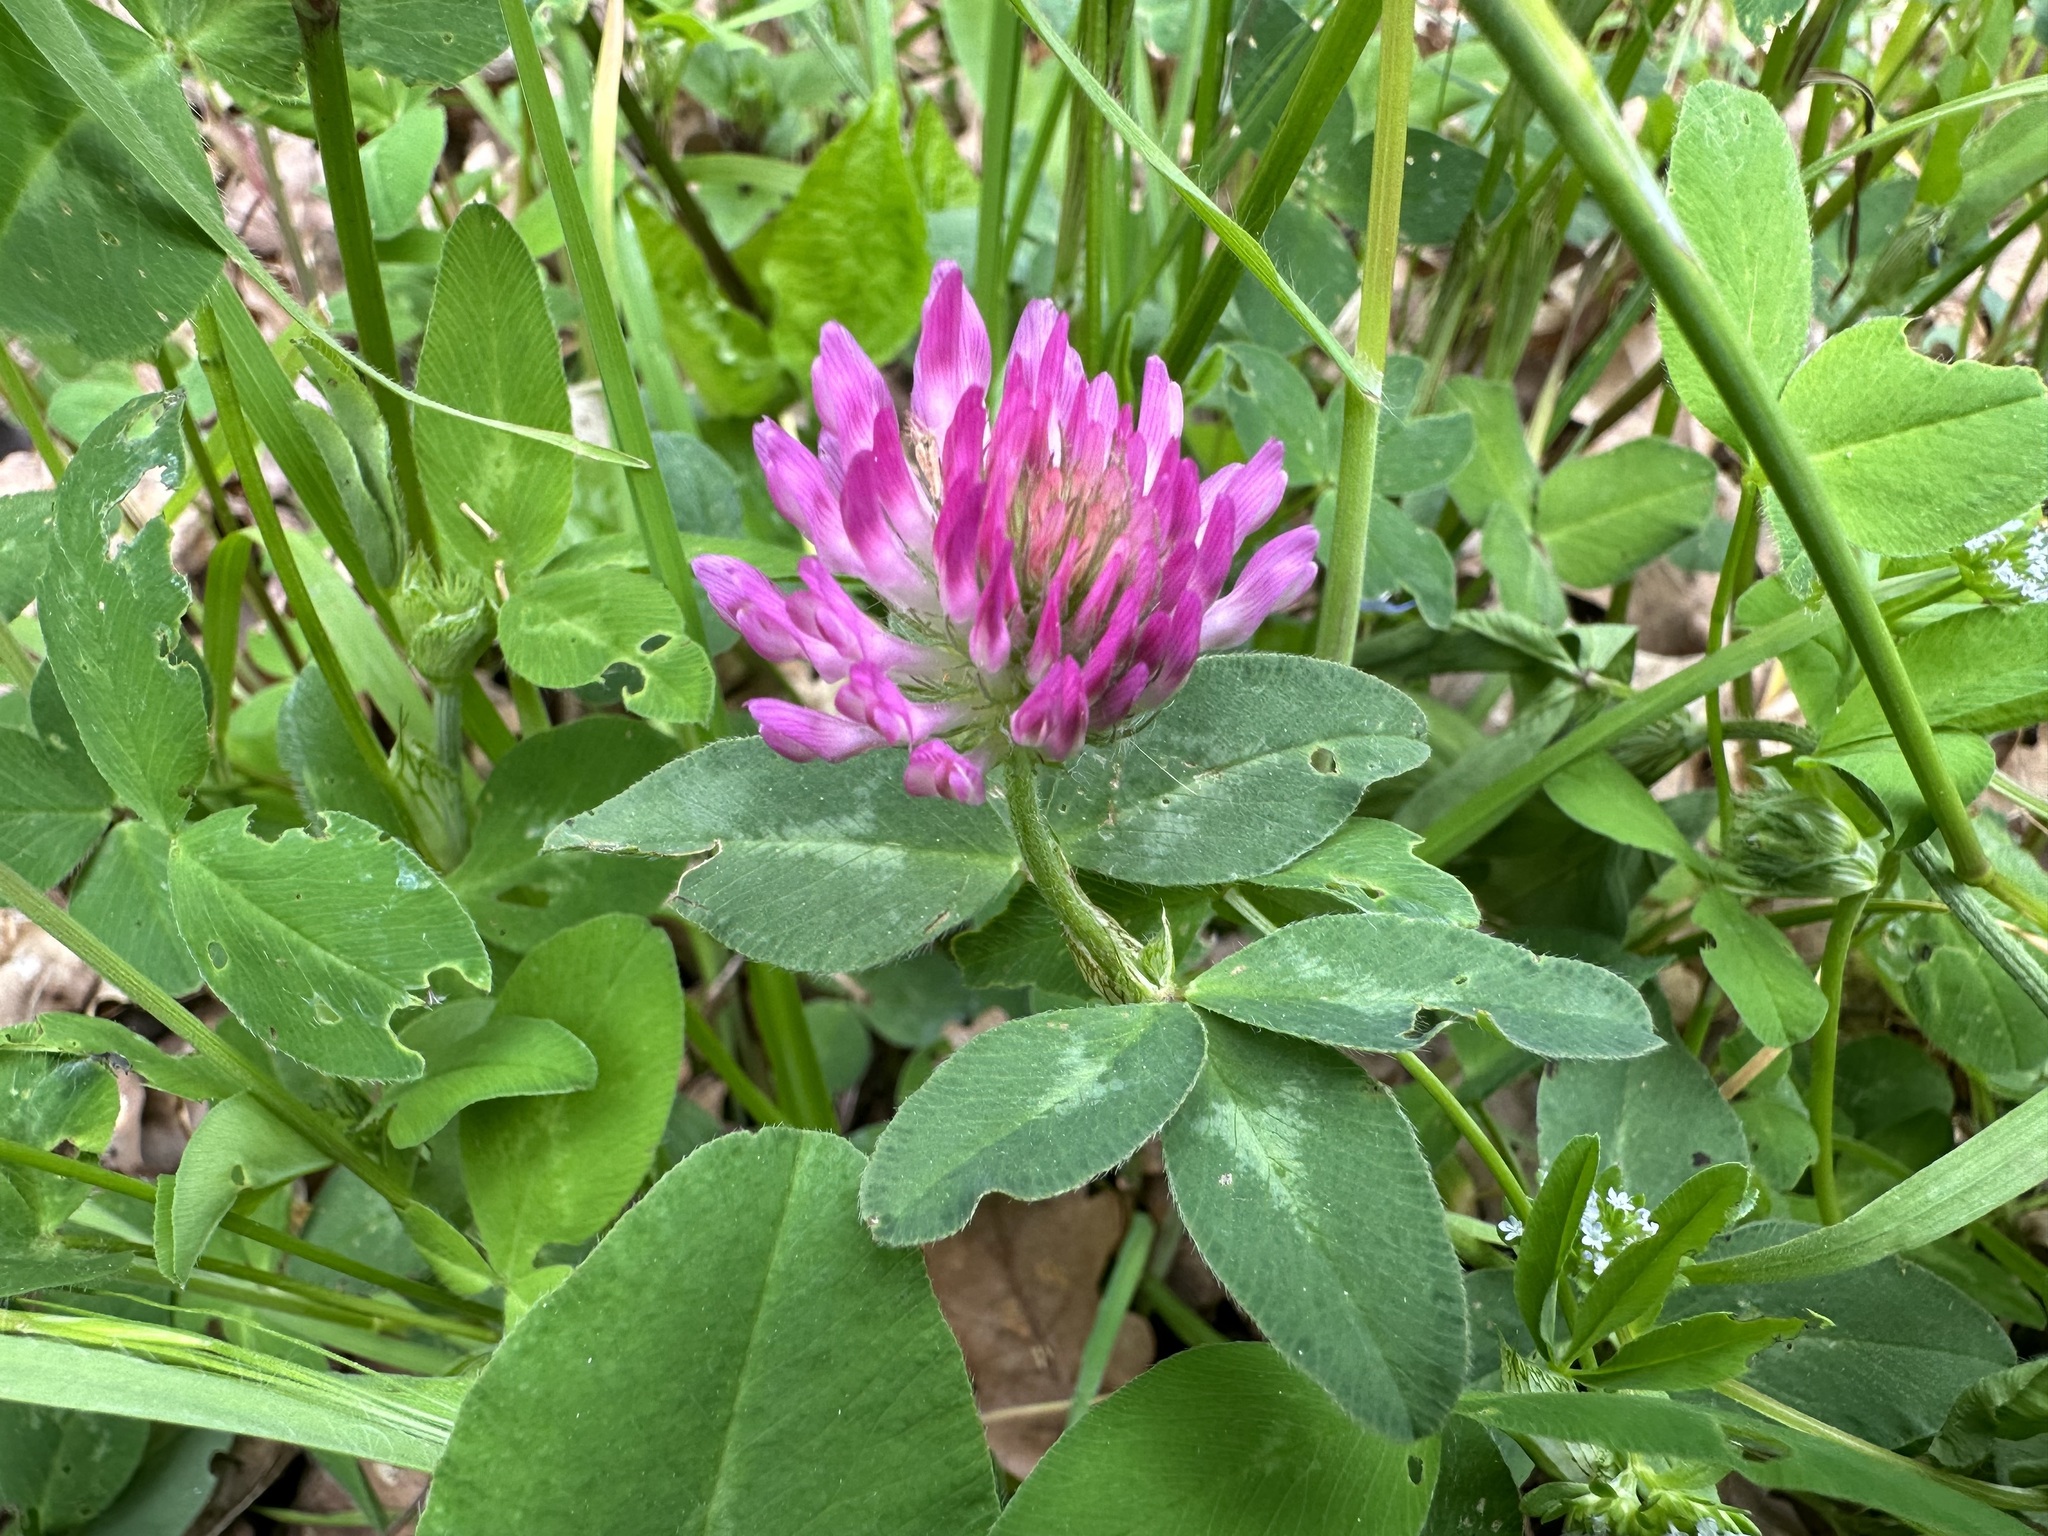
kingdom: Plantae
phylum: Tracheophyta
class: Magnoliopsida
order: Fabales
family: Fabaceae
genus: Trifolium
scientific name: Trifolium pratense
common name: Red clover
